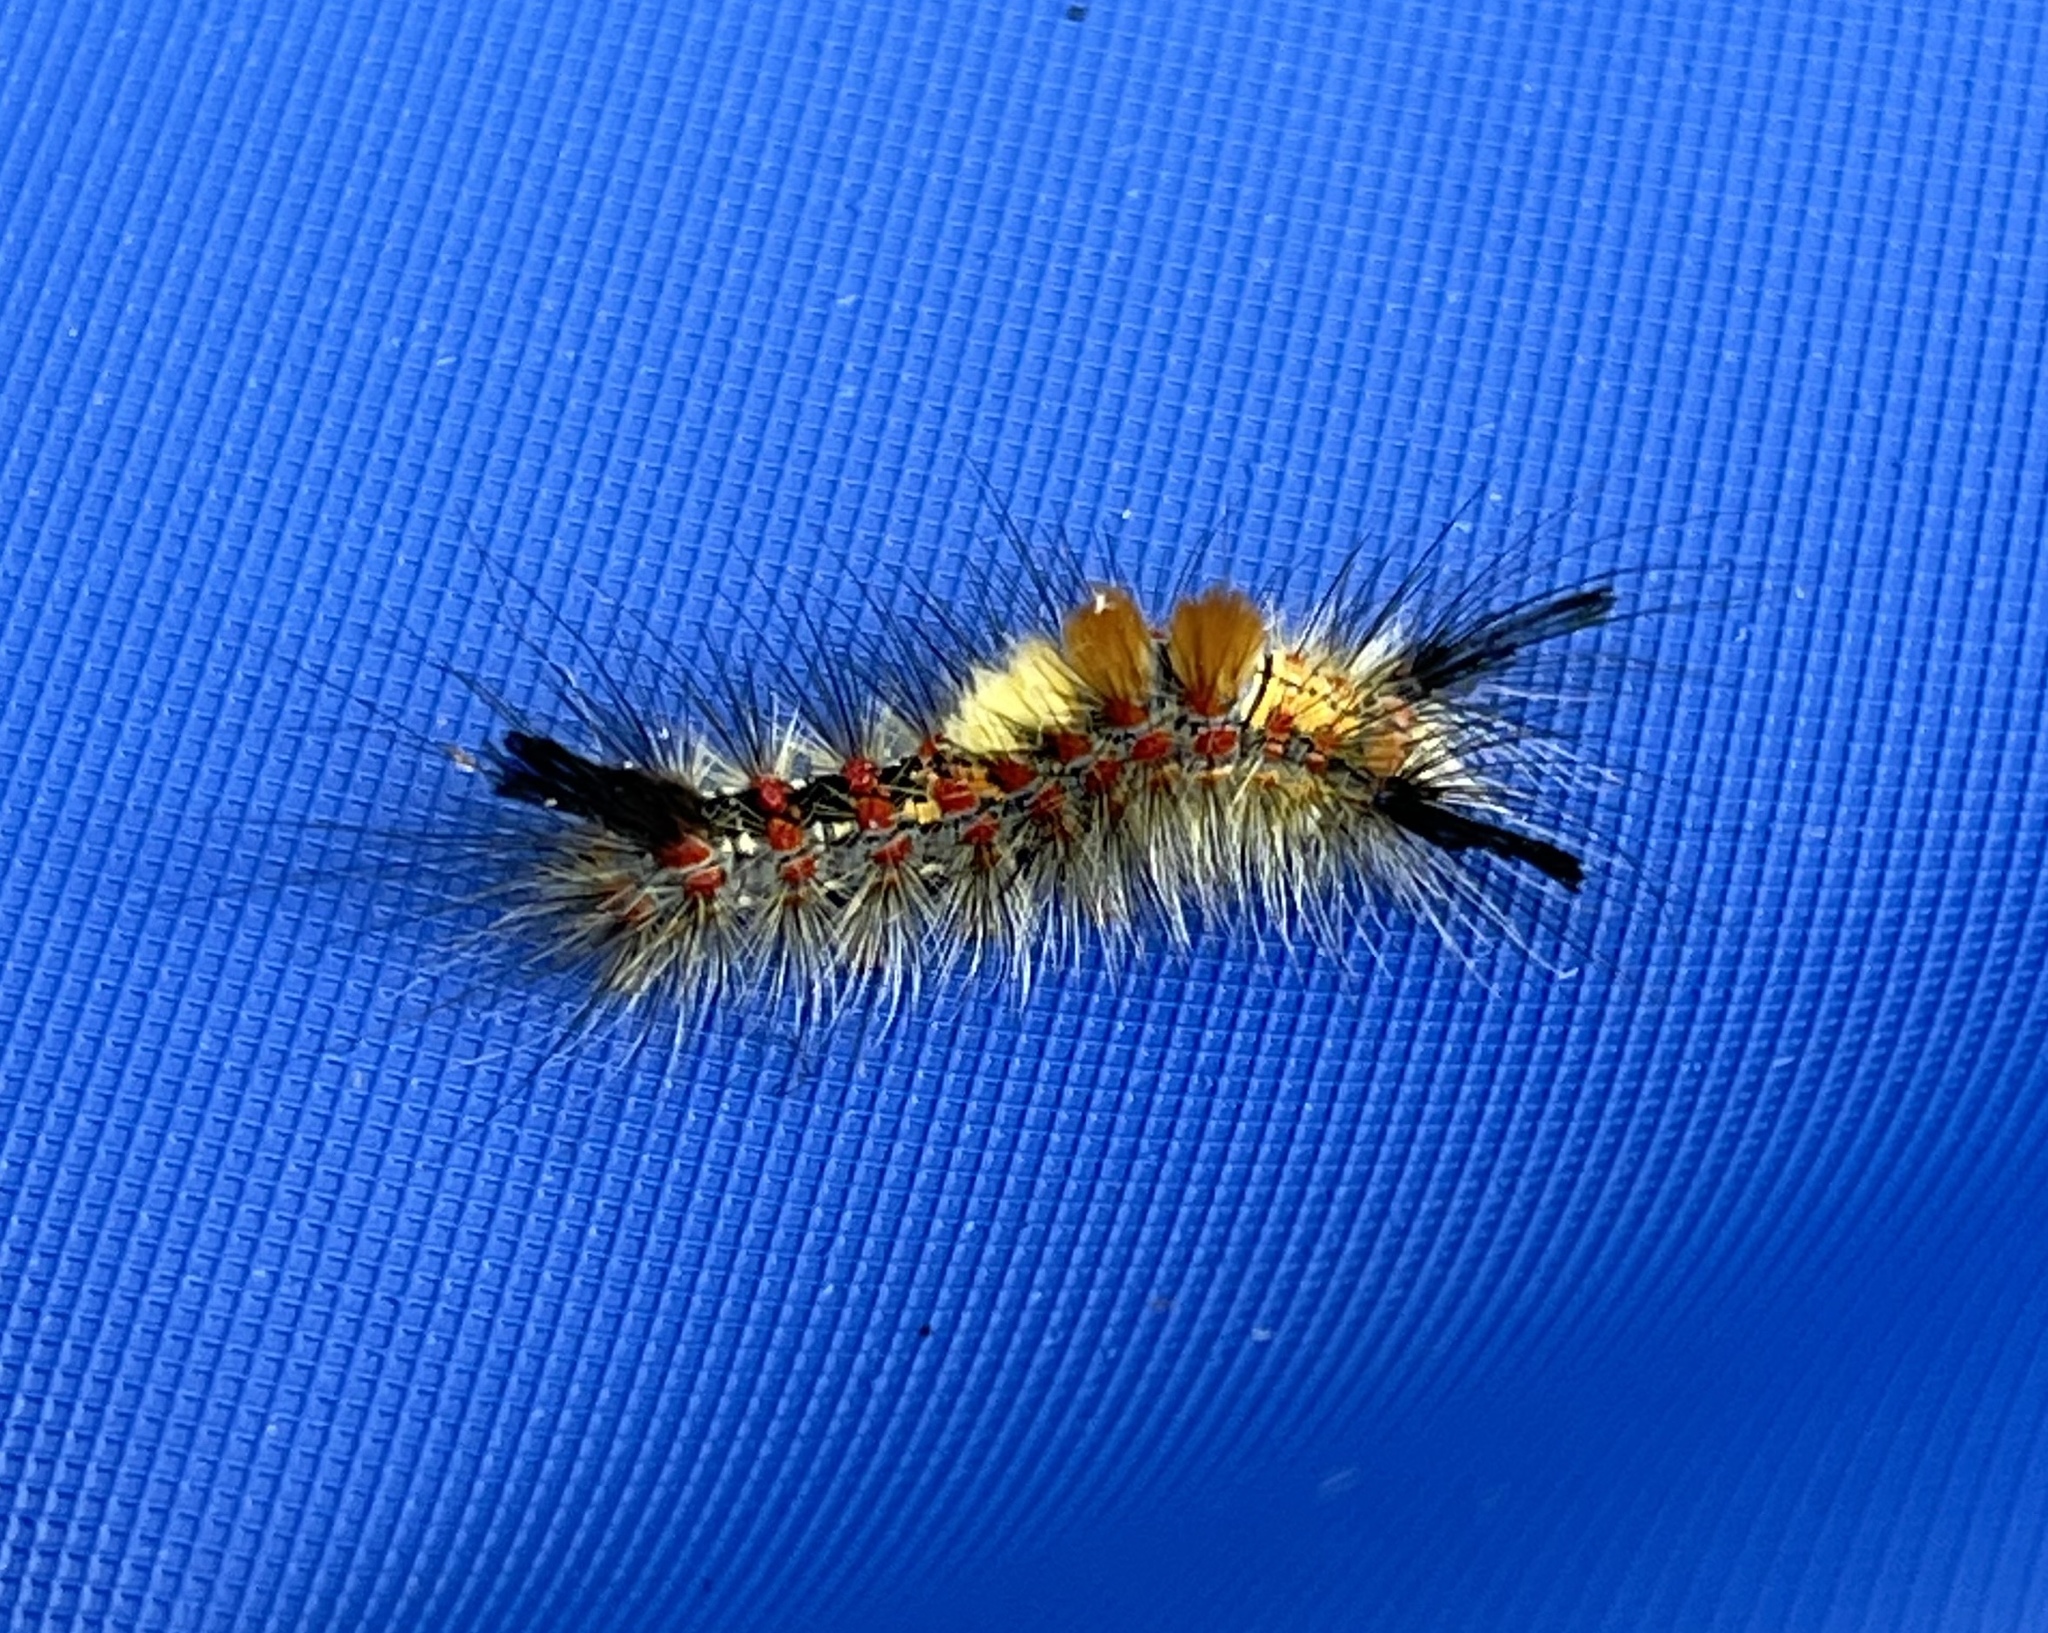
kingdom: Animalia
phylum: Arthropoda
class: Insecta
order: Lepidoptera
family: Erebidae
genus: Orgyia
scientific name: Orgyia vetusta
